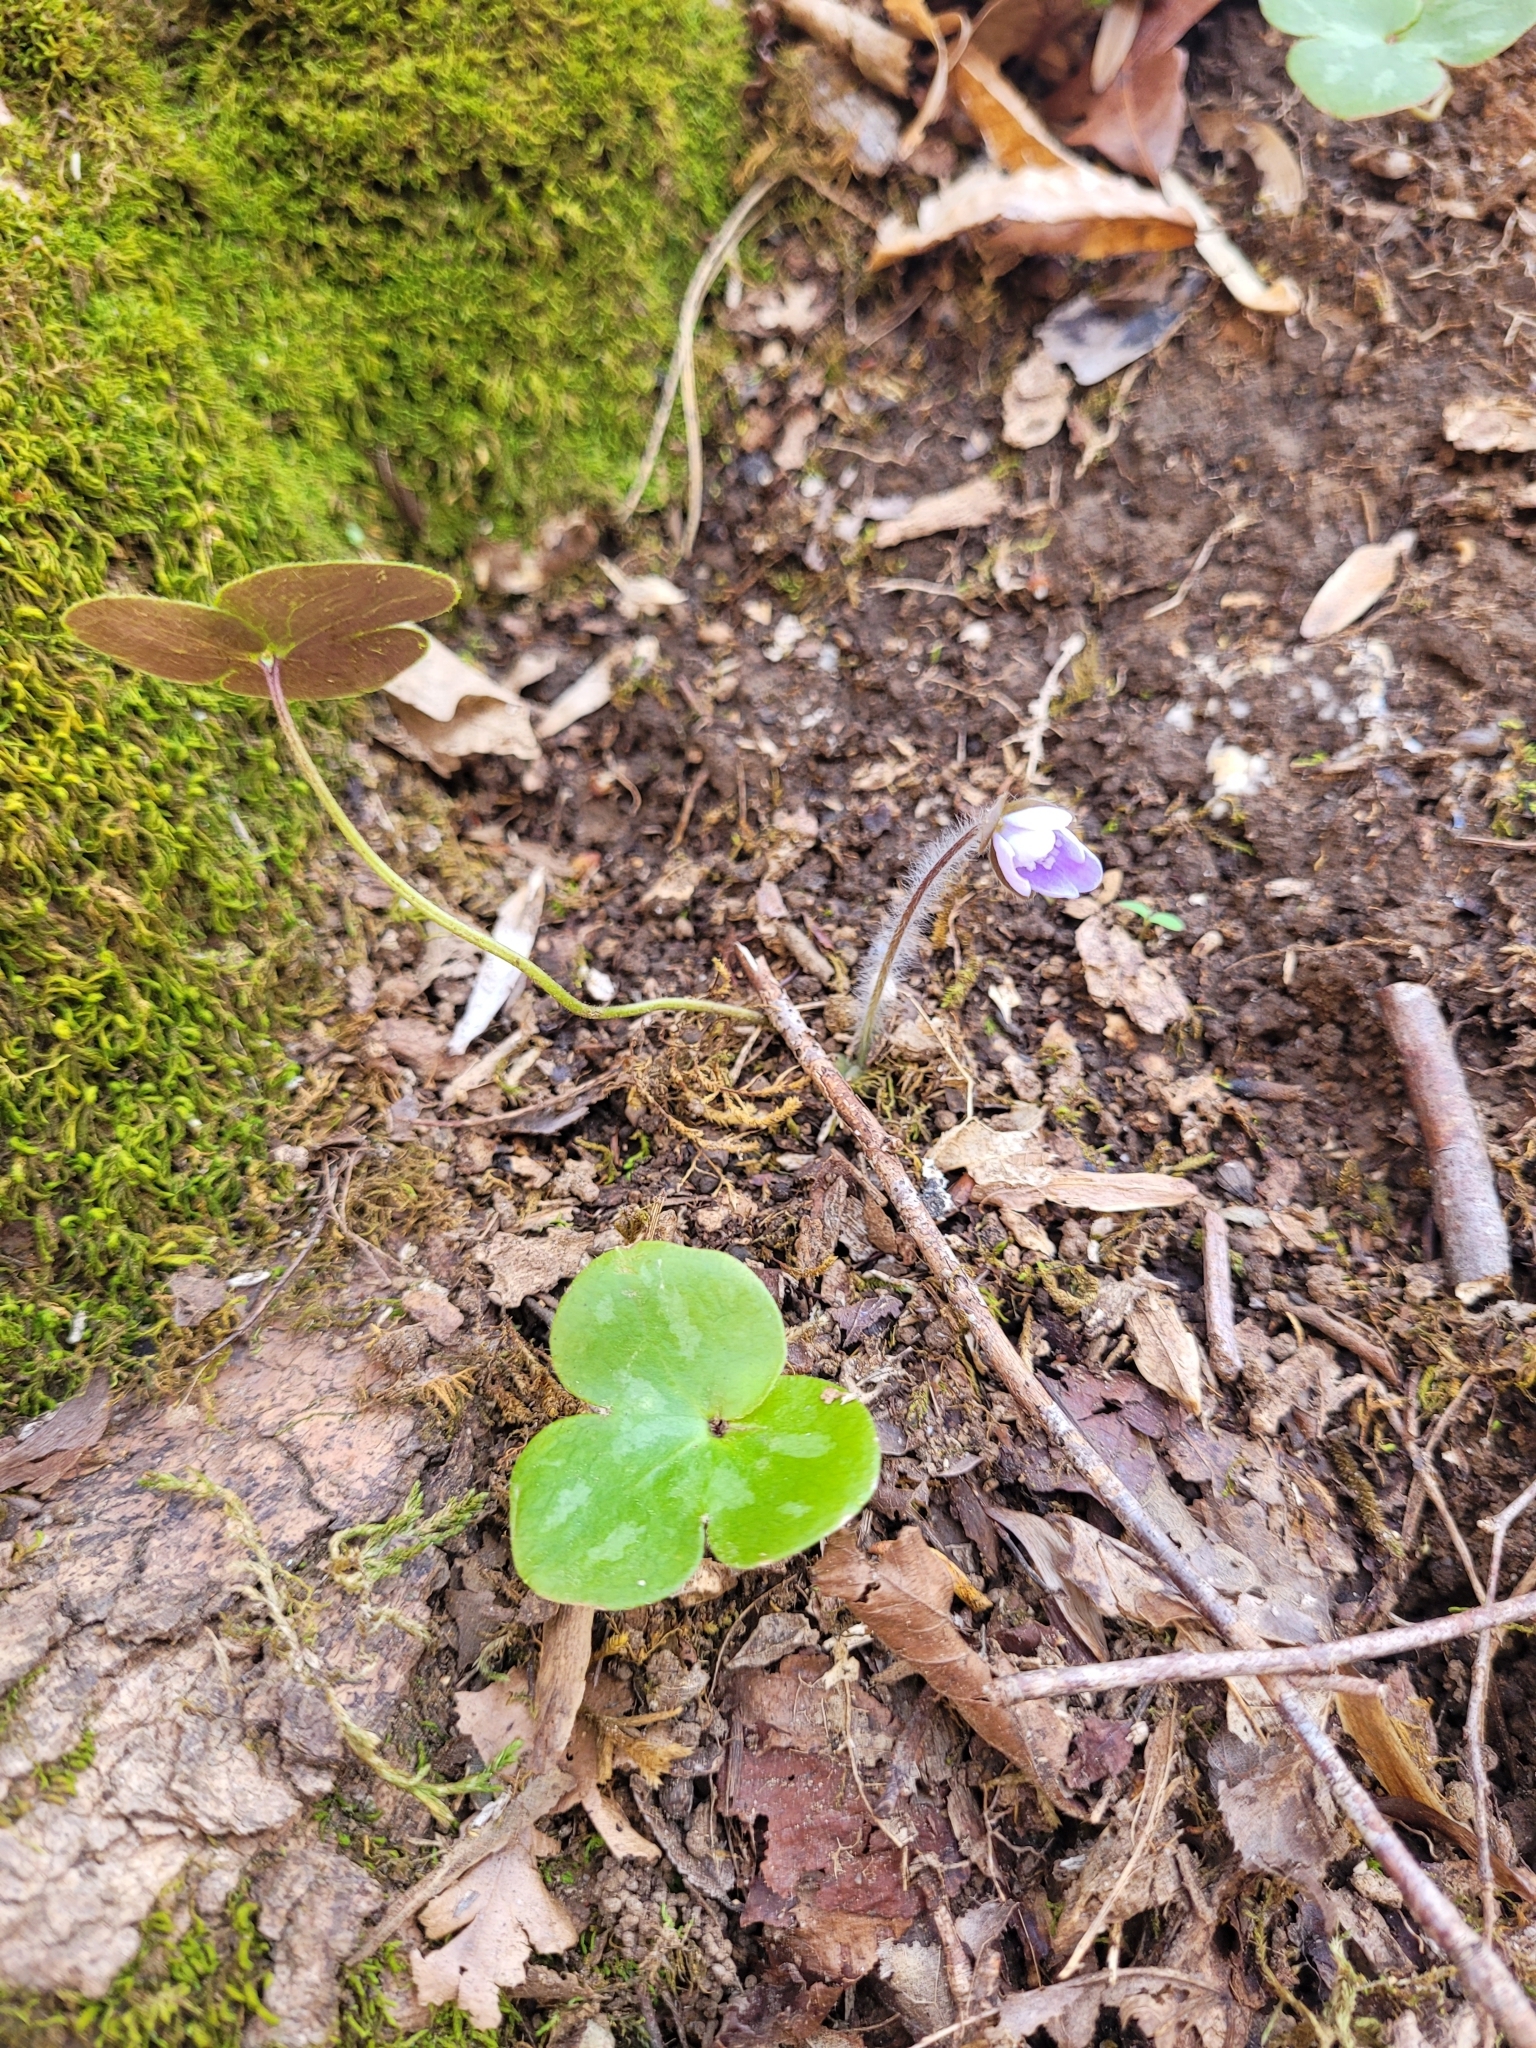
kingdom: Plantae
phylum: Tracheophyta
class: Magnoliopsida
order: Ranunculales
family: Ranunculaceae
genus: Hepatica
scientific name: Hepatica americana
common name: American hepatica
